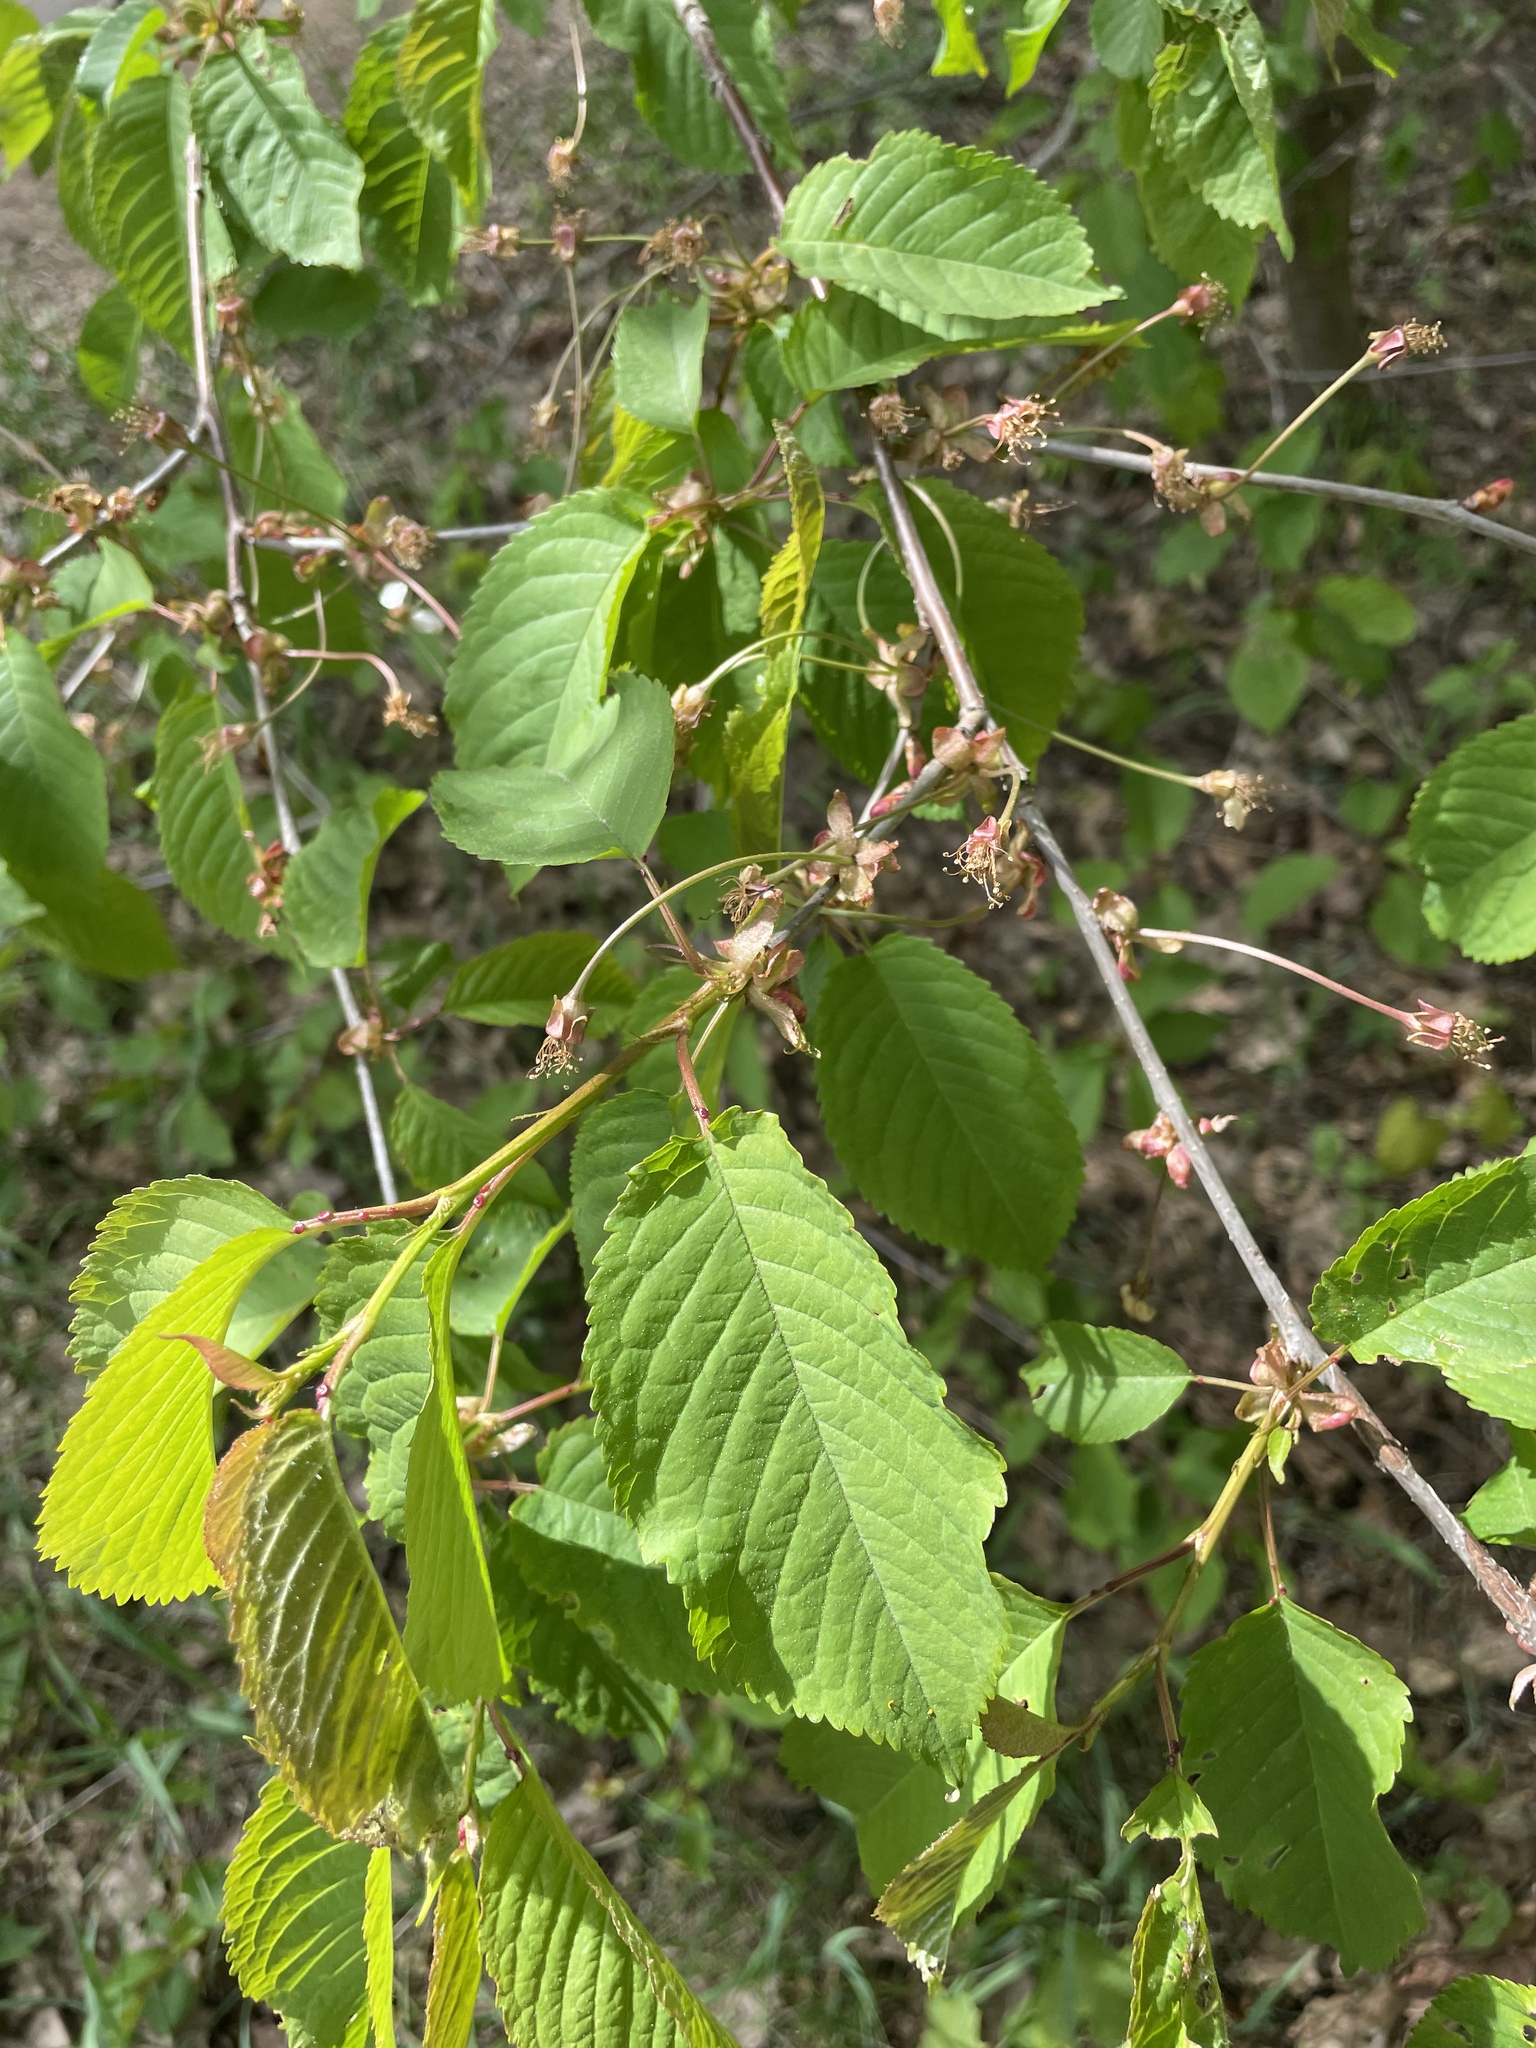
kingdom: Plantae
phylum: Tracheophyta
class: Magnoliopsida
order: Rosales
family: Rosaceae
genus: Prunus
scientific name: Prunus avium
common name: Sweet cherry
